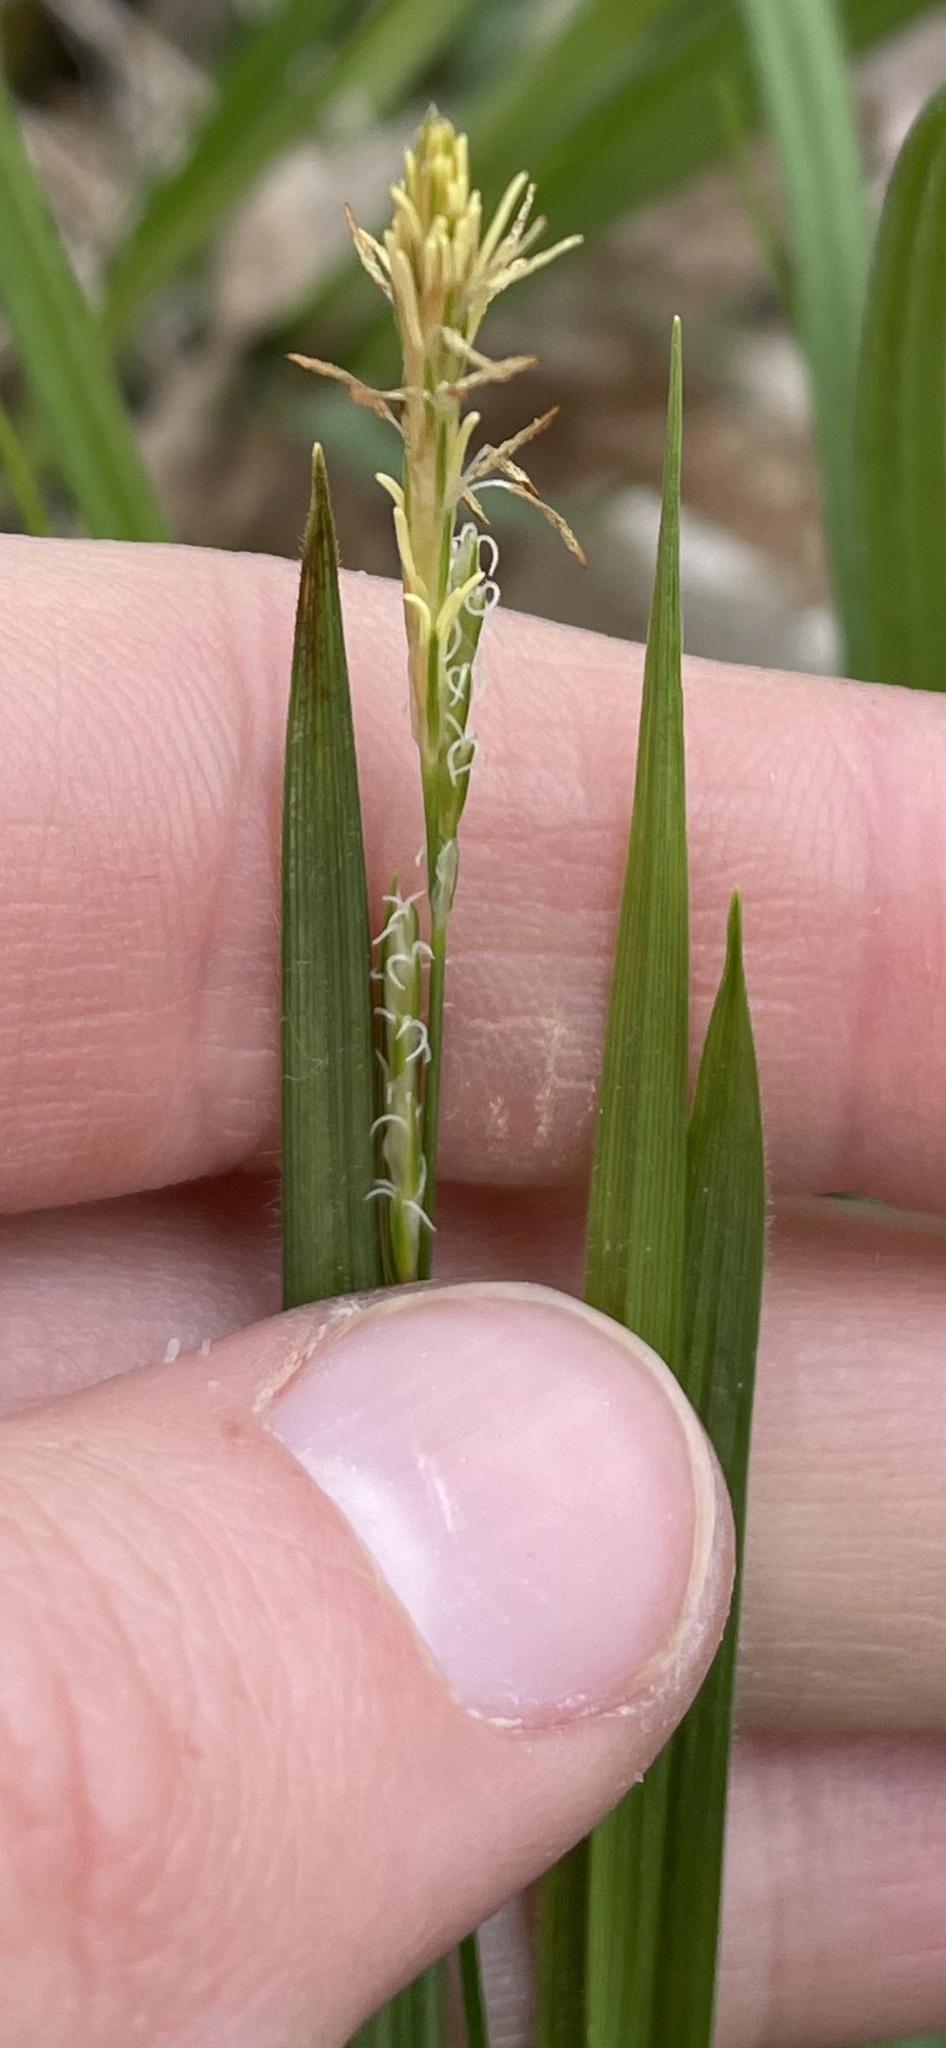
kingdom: Plantae
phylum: Tracheophyta
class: Liliopsida
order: Poales
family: Cyperaceae
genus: Carex
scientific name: Carex hirtifolia
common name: Hairy sedge
